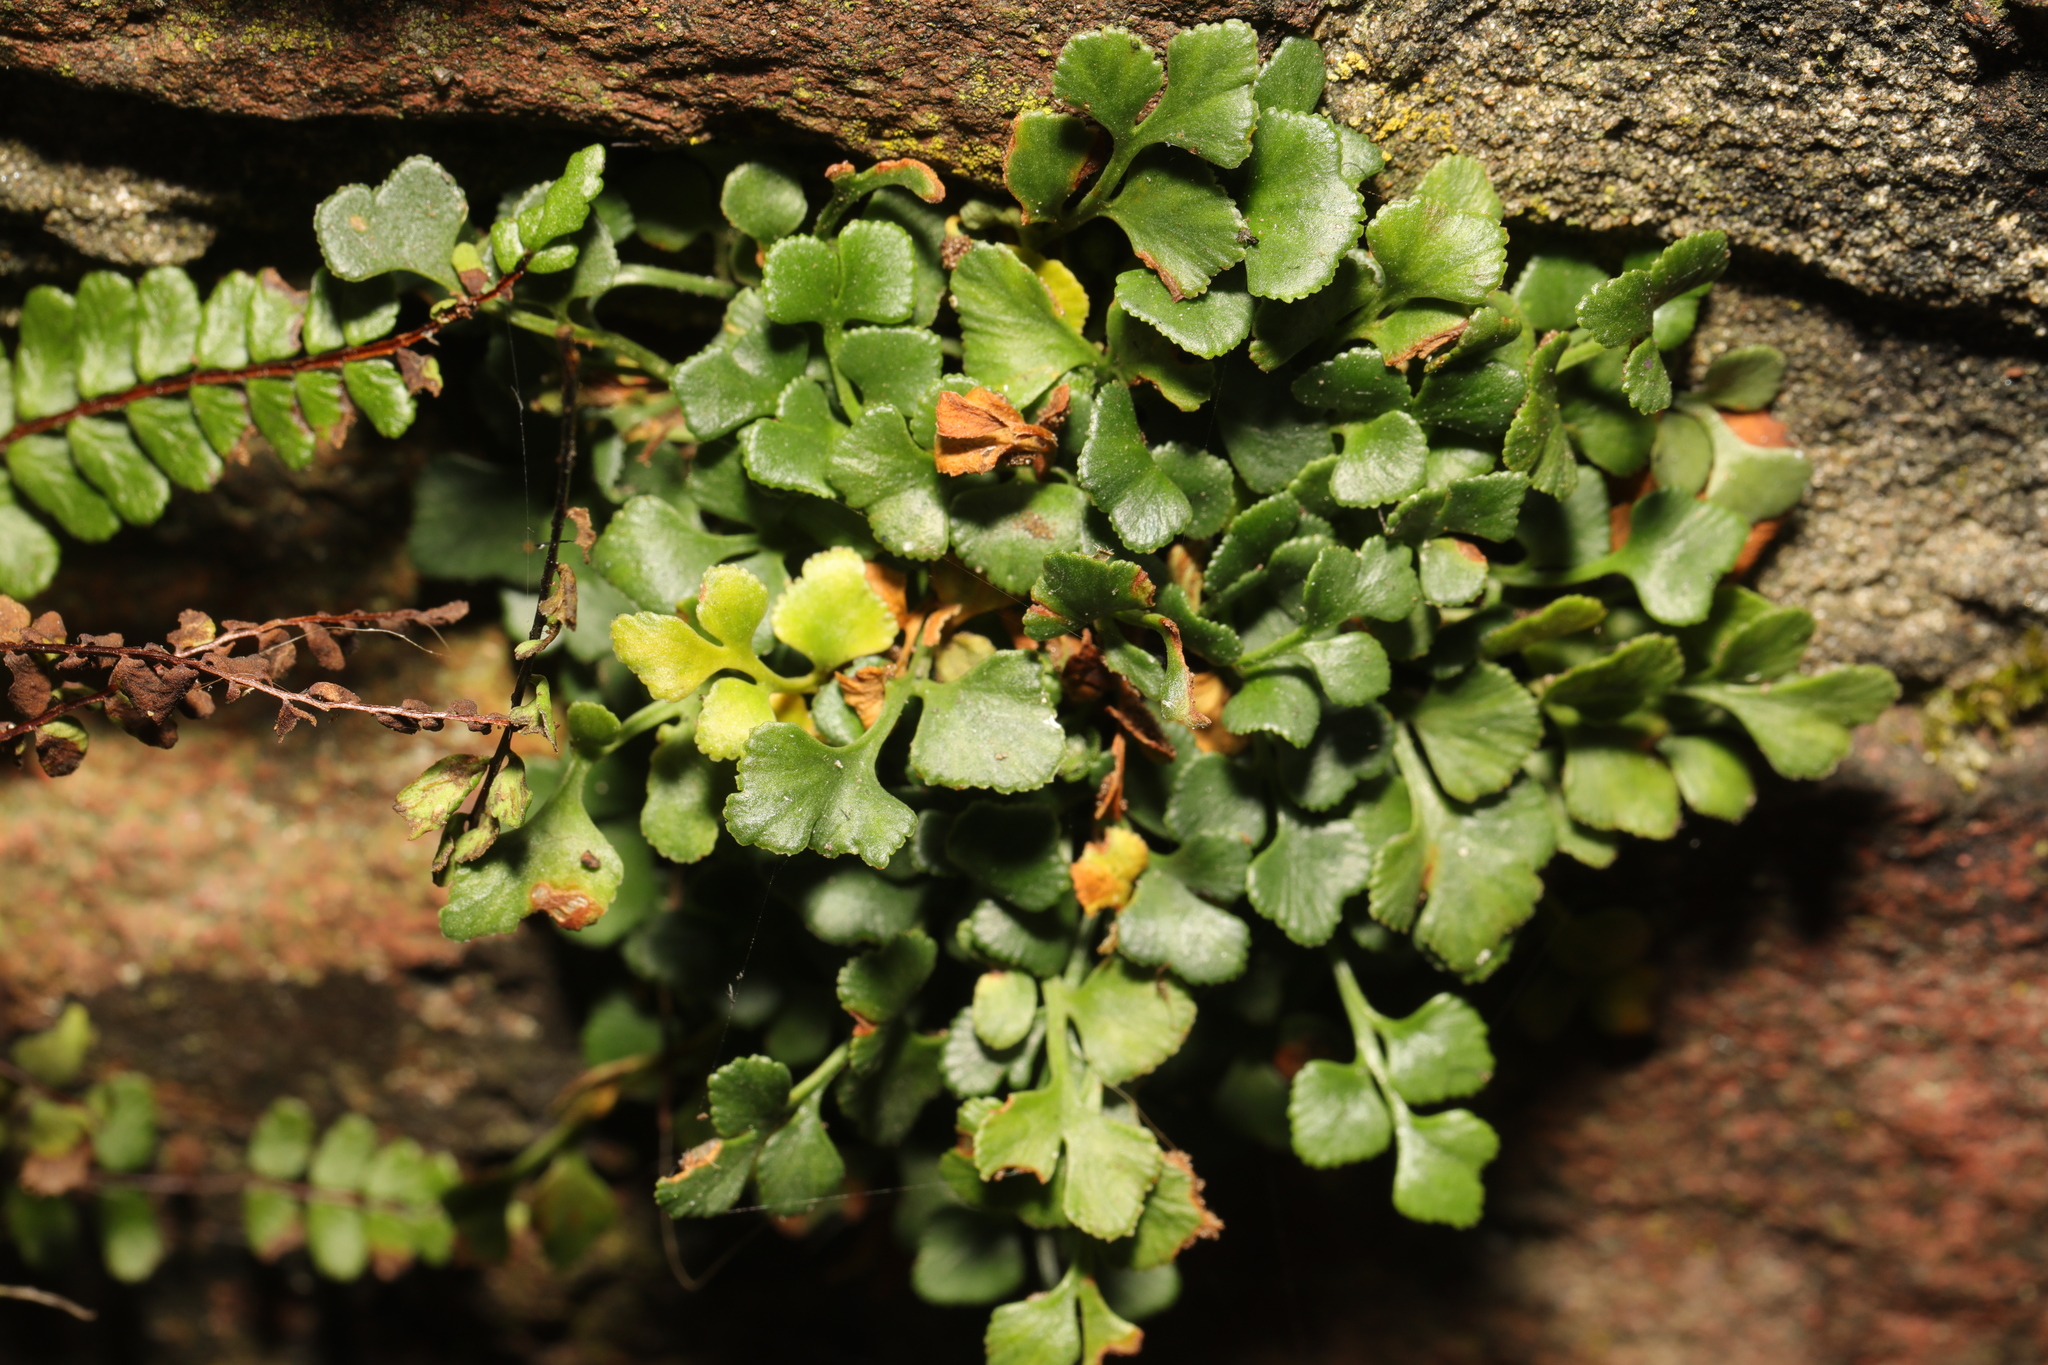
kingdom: Plantae
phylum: Tracheophyta
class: Polypodiopsida
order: Polypodiales
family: Aspleniaceae
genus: Asplenium
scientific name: Asplenium ruta-muraria
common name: Wall-rue
